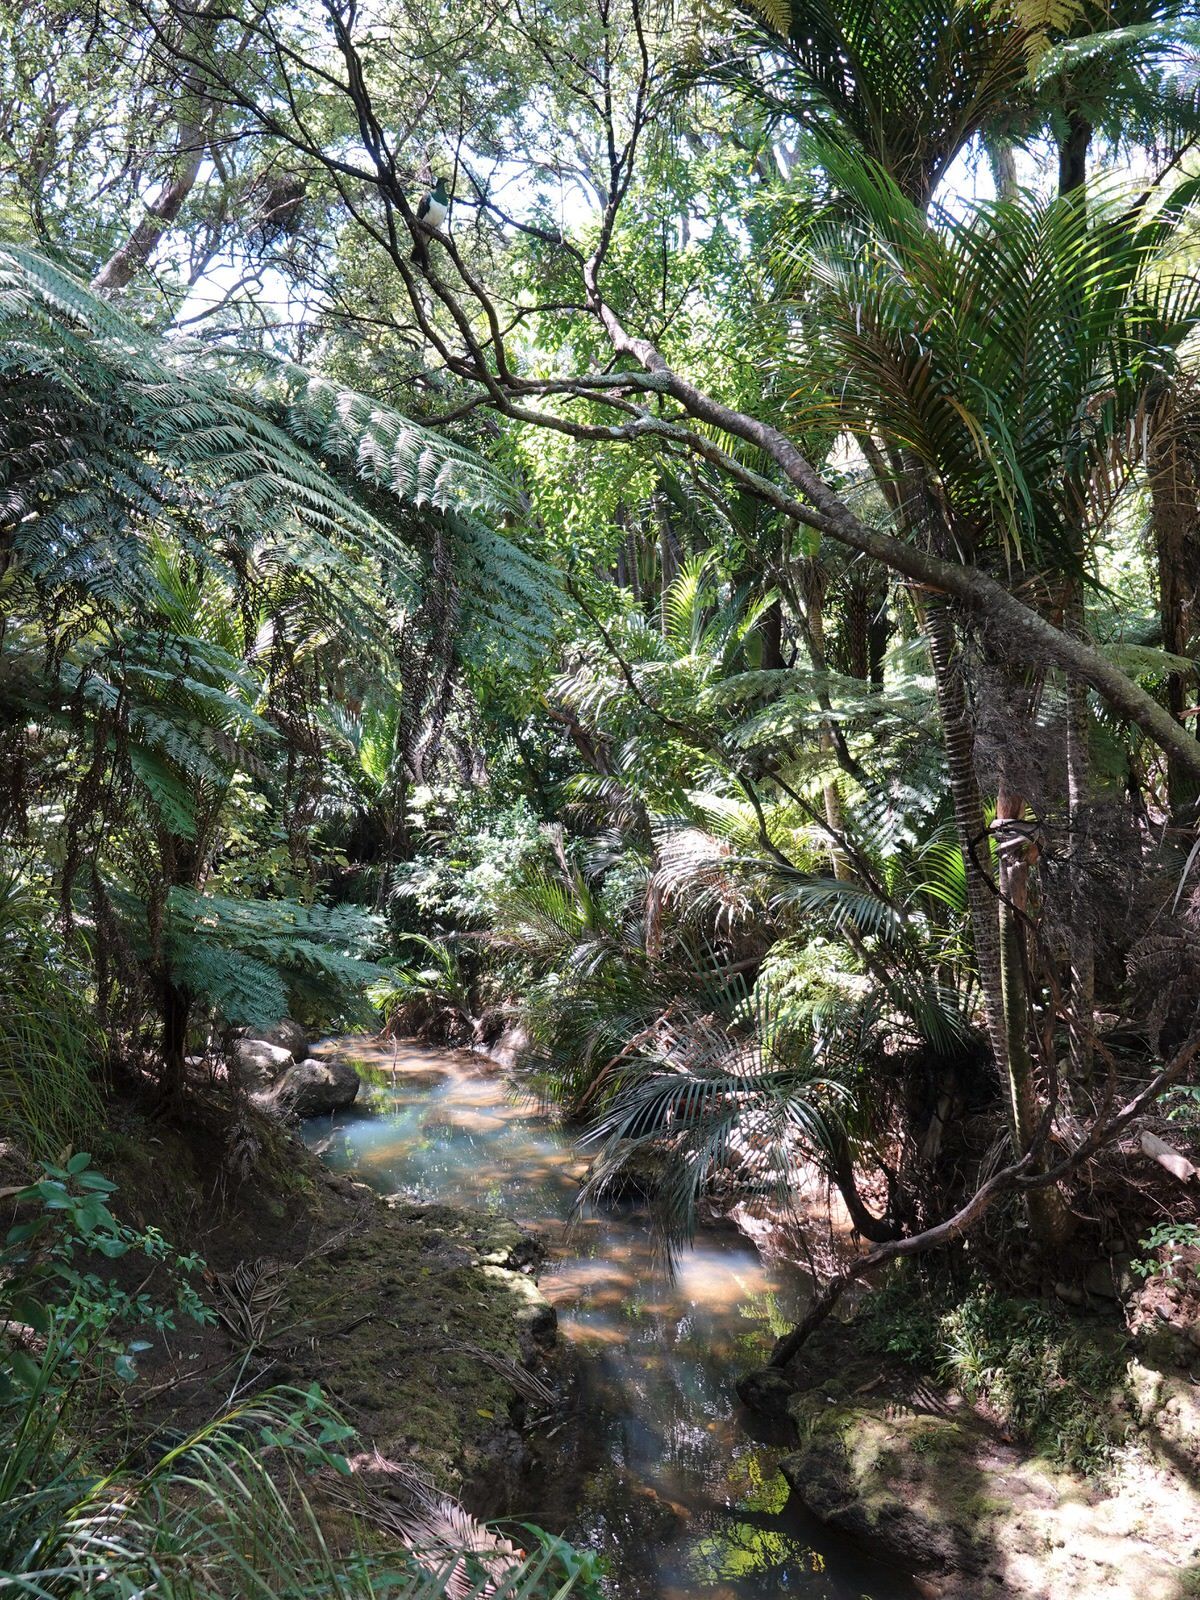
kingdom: Animalia
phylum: Chordata
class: Aves
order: Columbiformes
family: Columbidae
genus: Hemiphaga
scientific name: Hemiphaga novaeseelandiae
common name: New zealand pigeon
